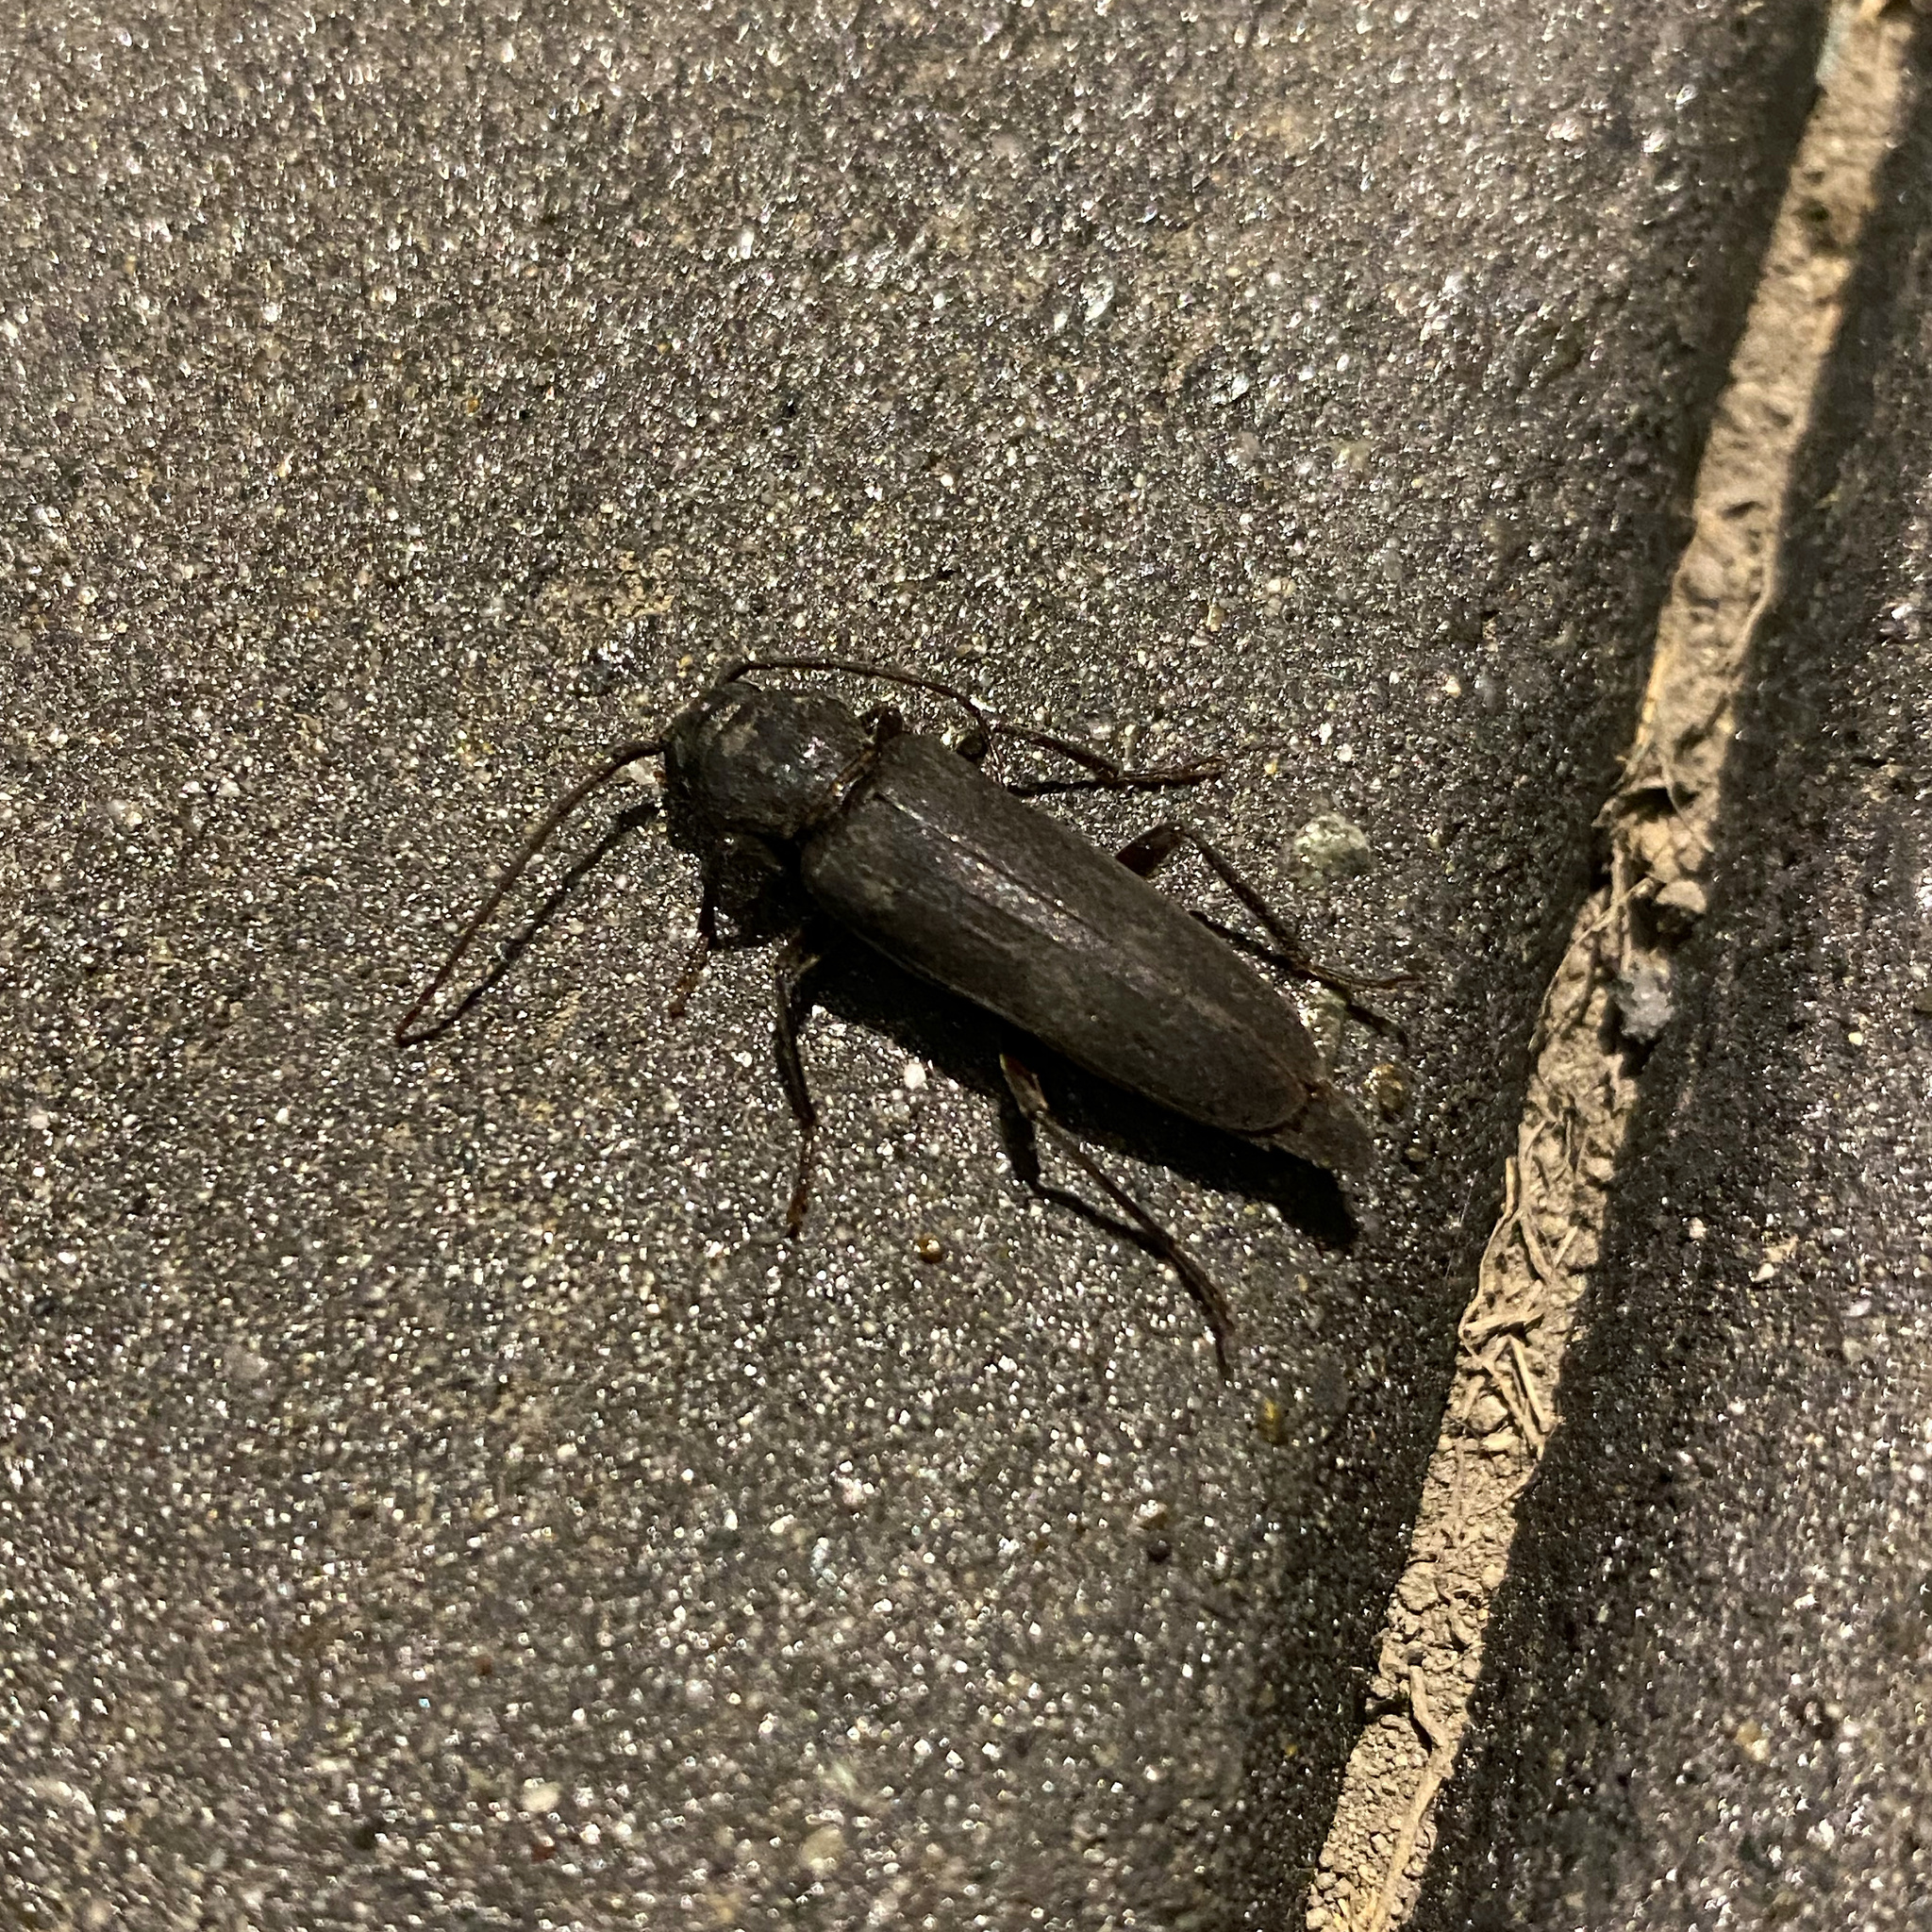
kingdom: Animalia
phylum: Arthropoda
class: Insecta
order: Coleoptera
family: Cerambycidae
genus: Arhopalus
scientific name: Arhopalus ferus
